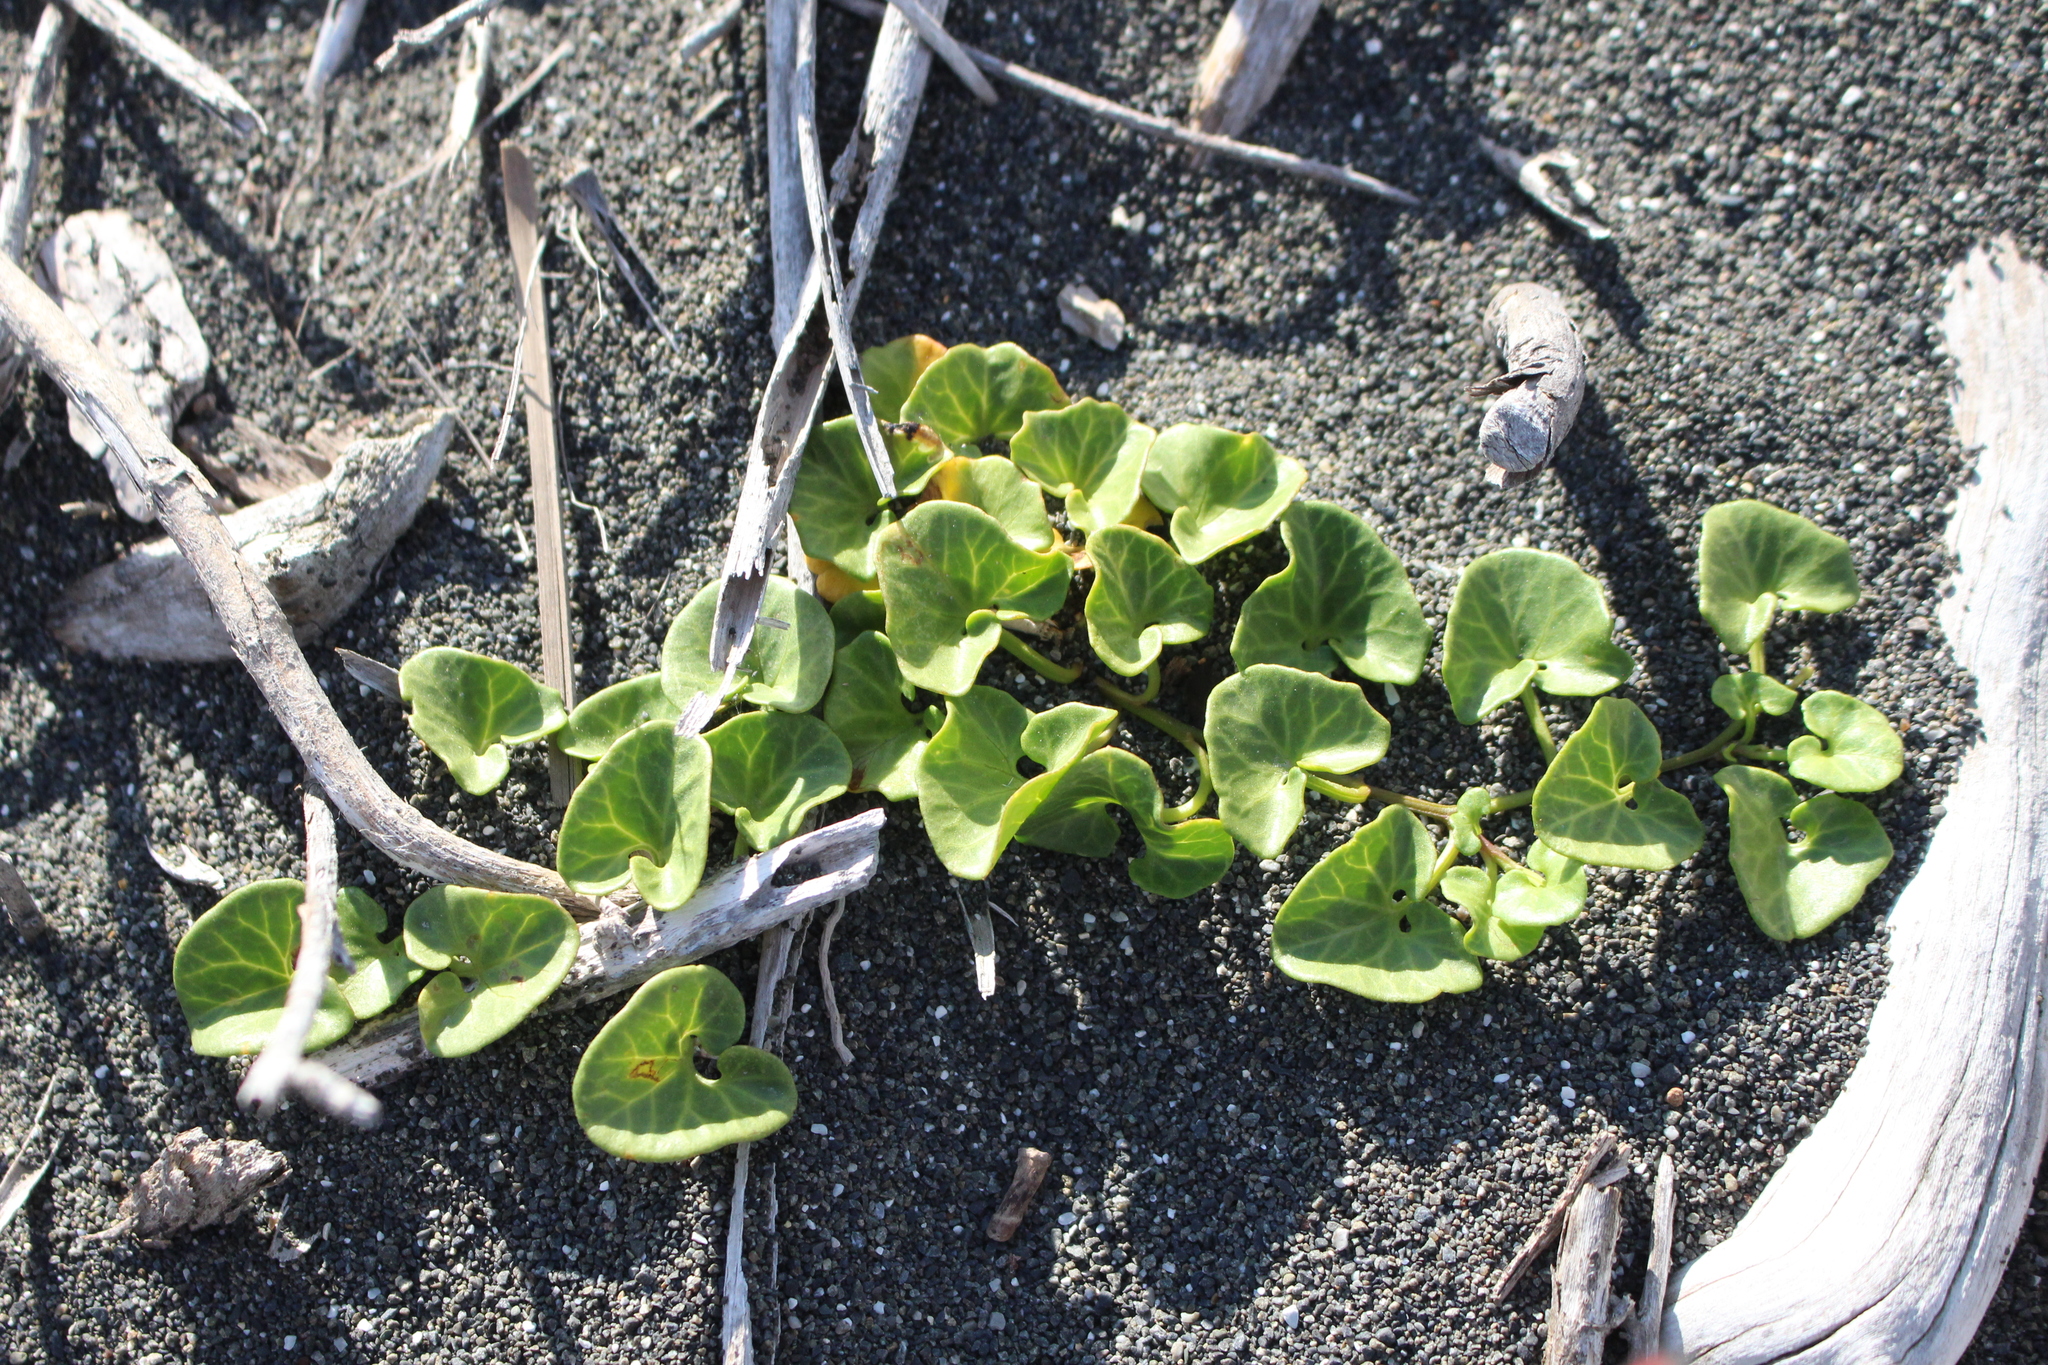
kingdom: Plantae
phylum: Tracheophyta
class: Magnoliopsida
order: Solanales
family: Convolvulaceae
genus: Calystegia
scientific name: Calystegia soldanella
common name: Sea bindweed
